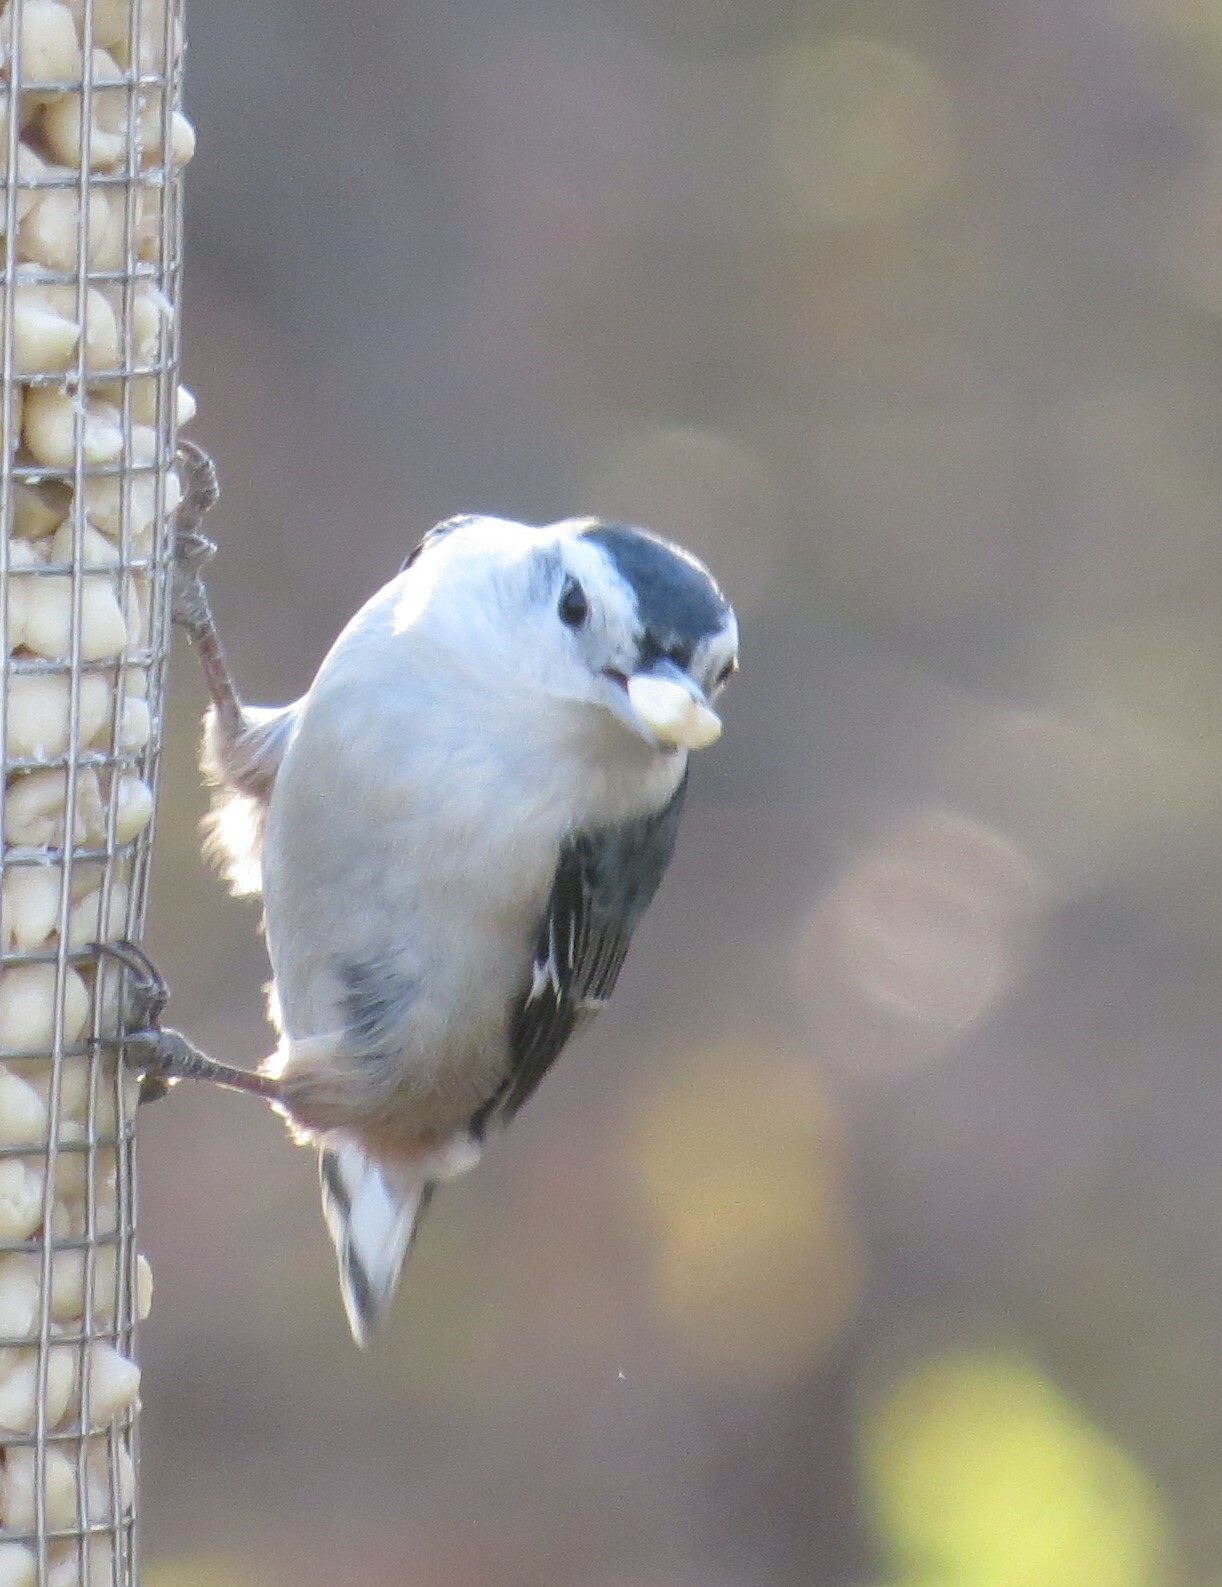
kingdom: Animalia
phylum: Chordata
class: Aves
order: Passeriformes
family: Sittidae
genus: Sitta
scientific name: Sitta carolinensis
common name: White-breasted nuthatch
